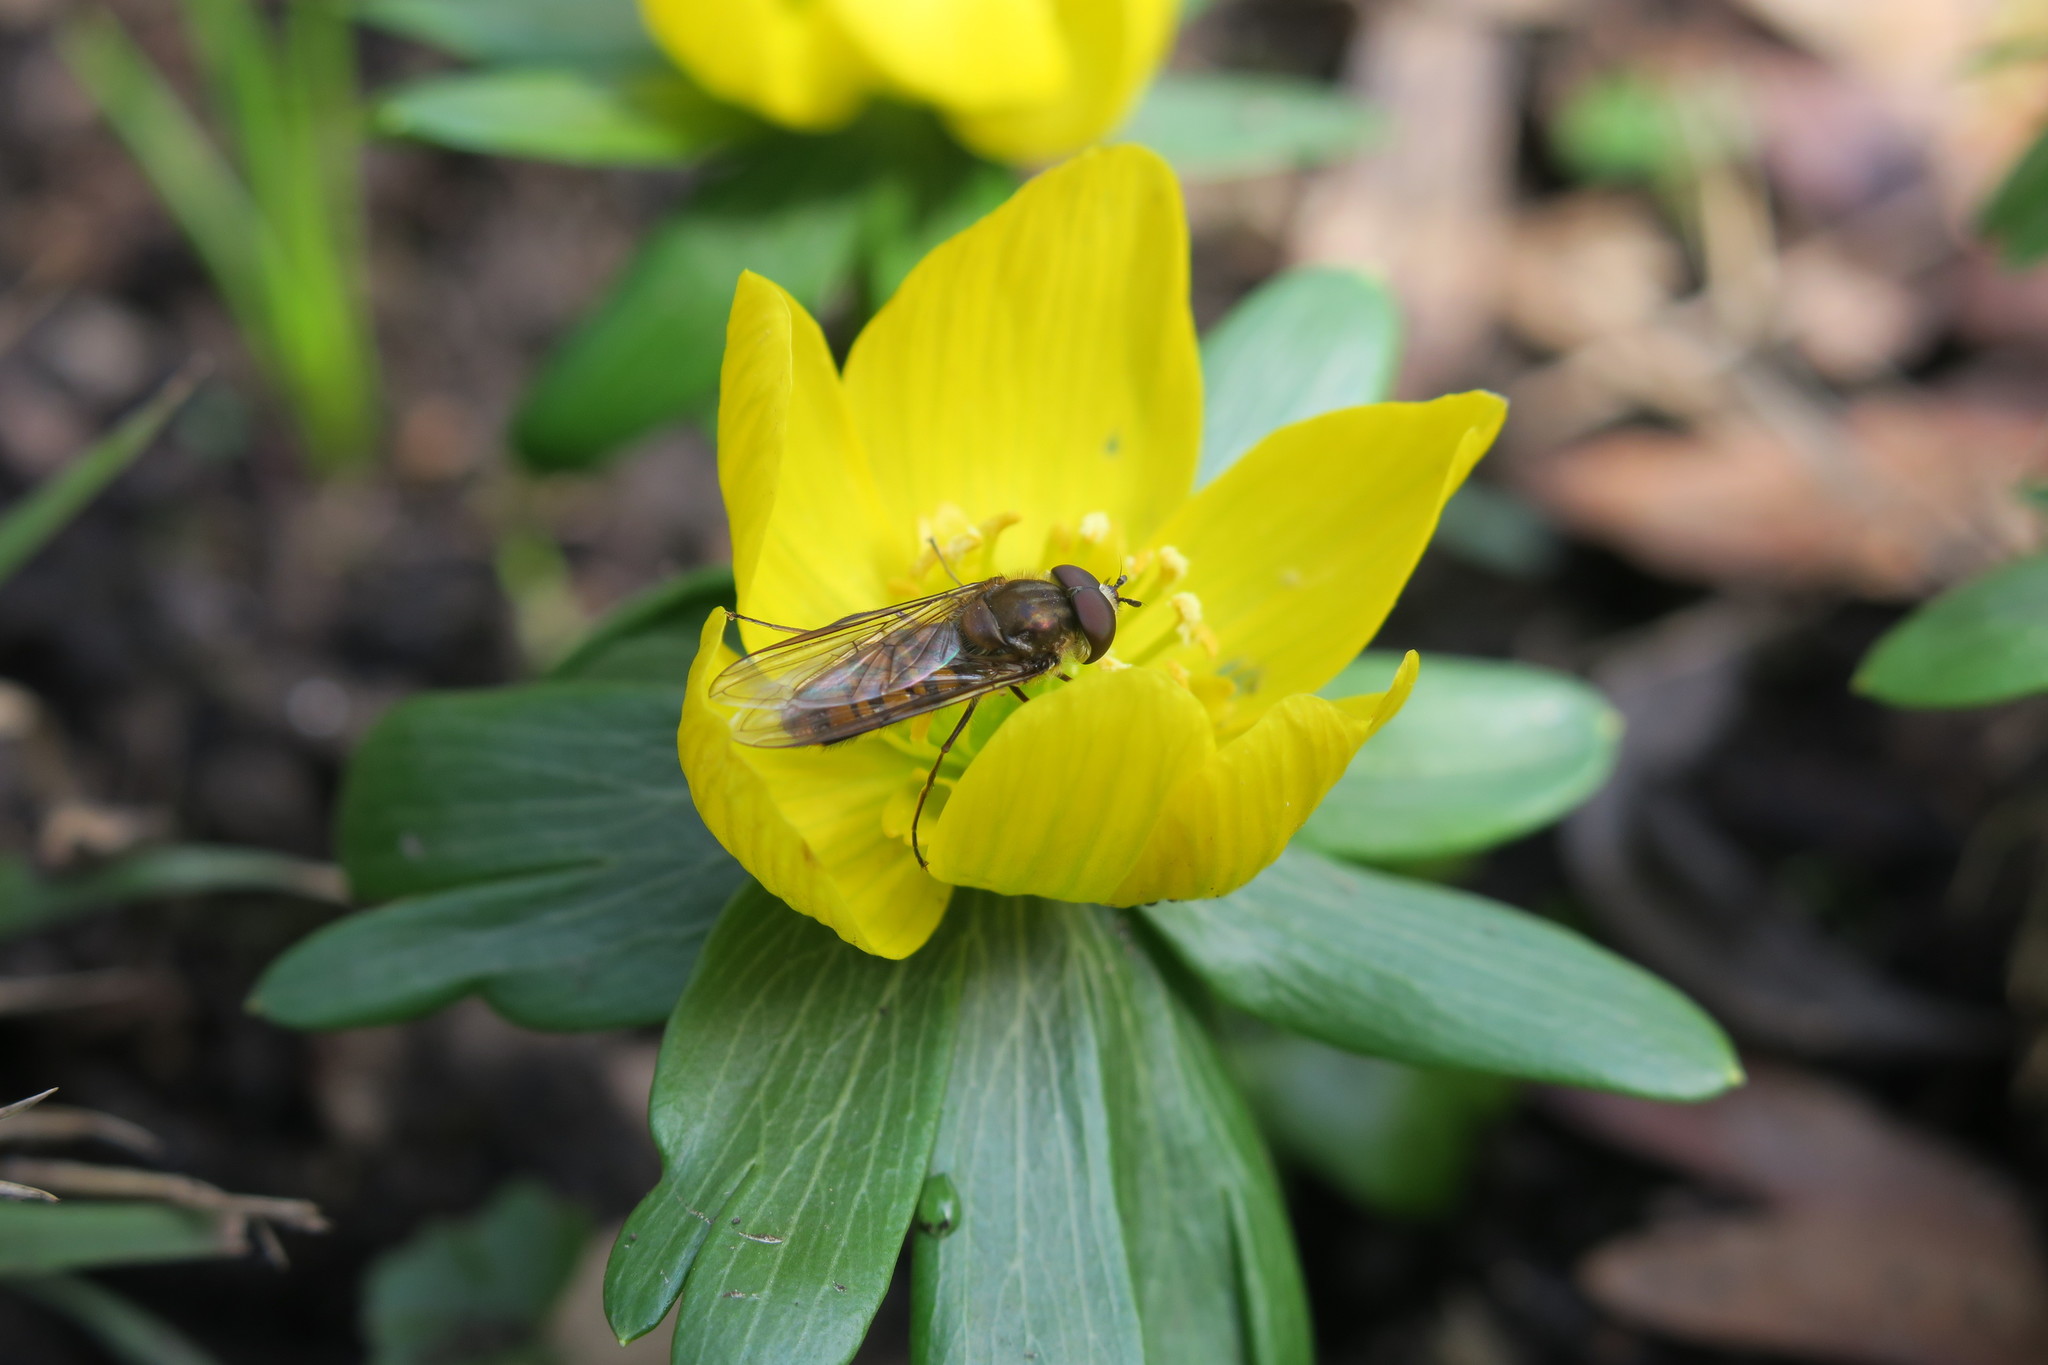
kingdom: Animalia
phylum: Arthropoda
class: Insecta
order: Diptera
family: Syrphidae
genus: Episyrphus
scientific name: Episyrphus balteatus
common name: Marmalade hoverfly
